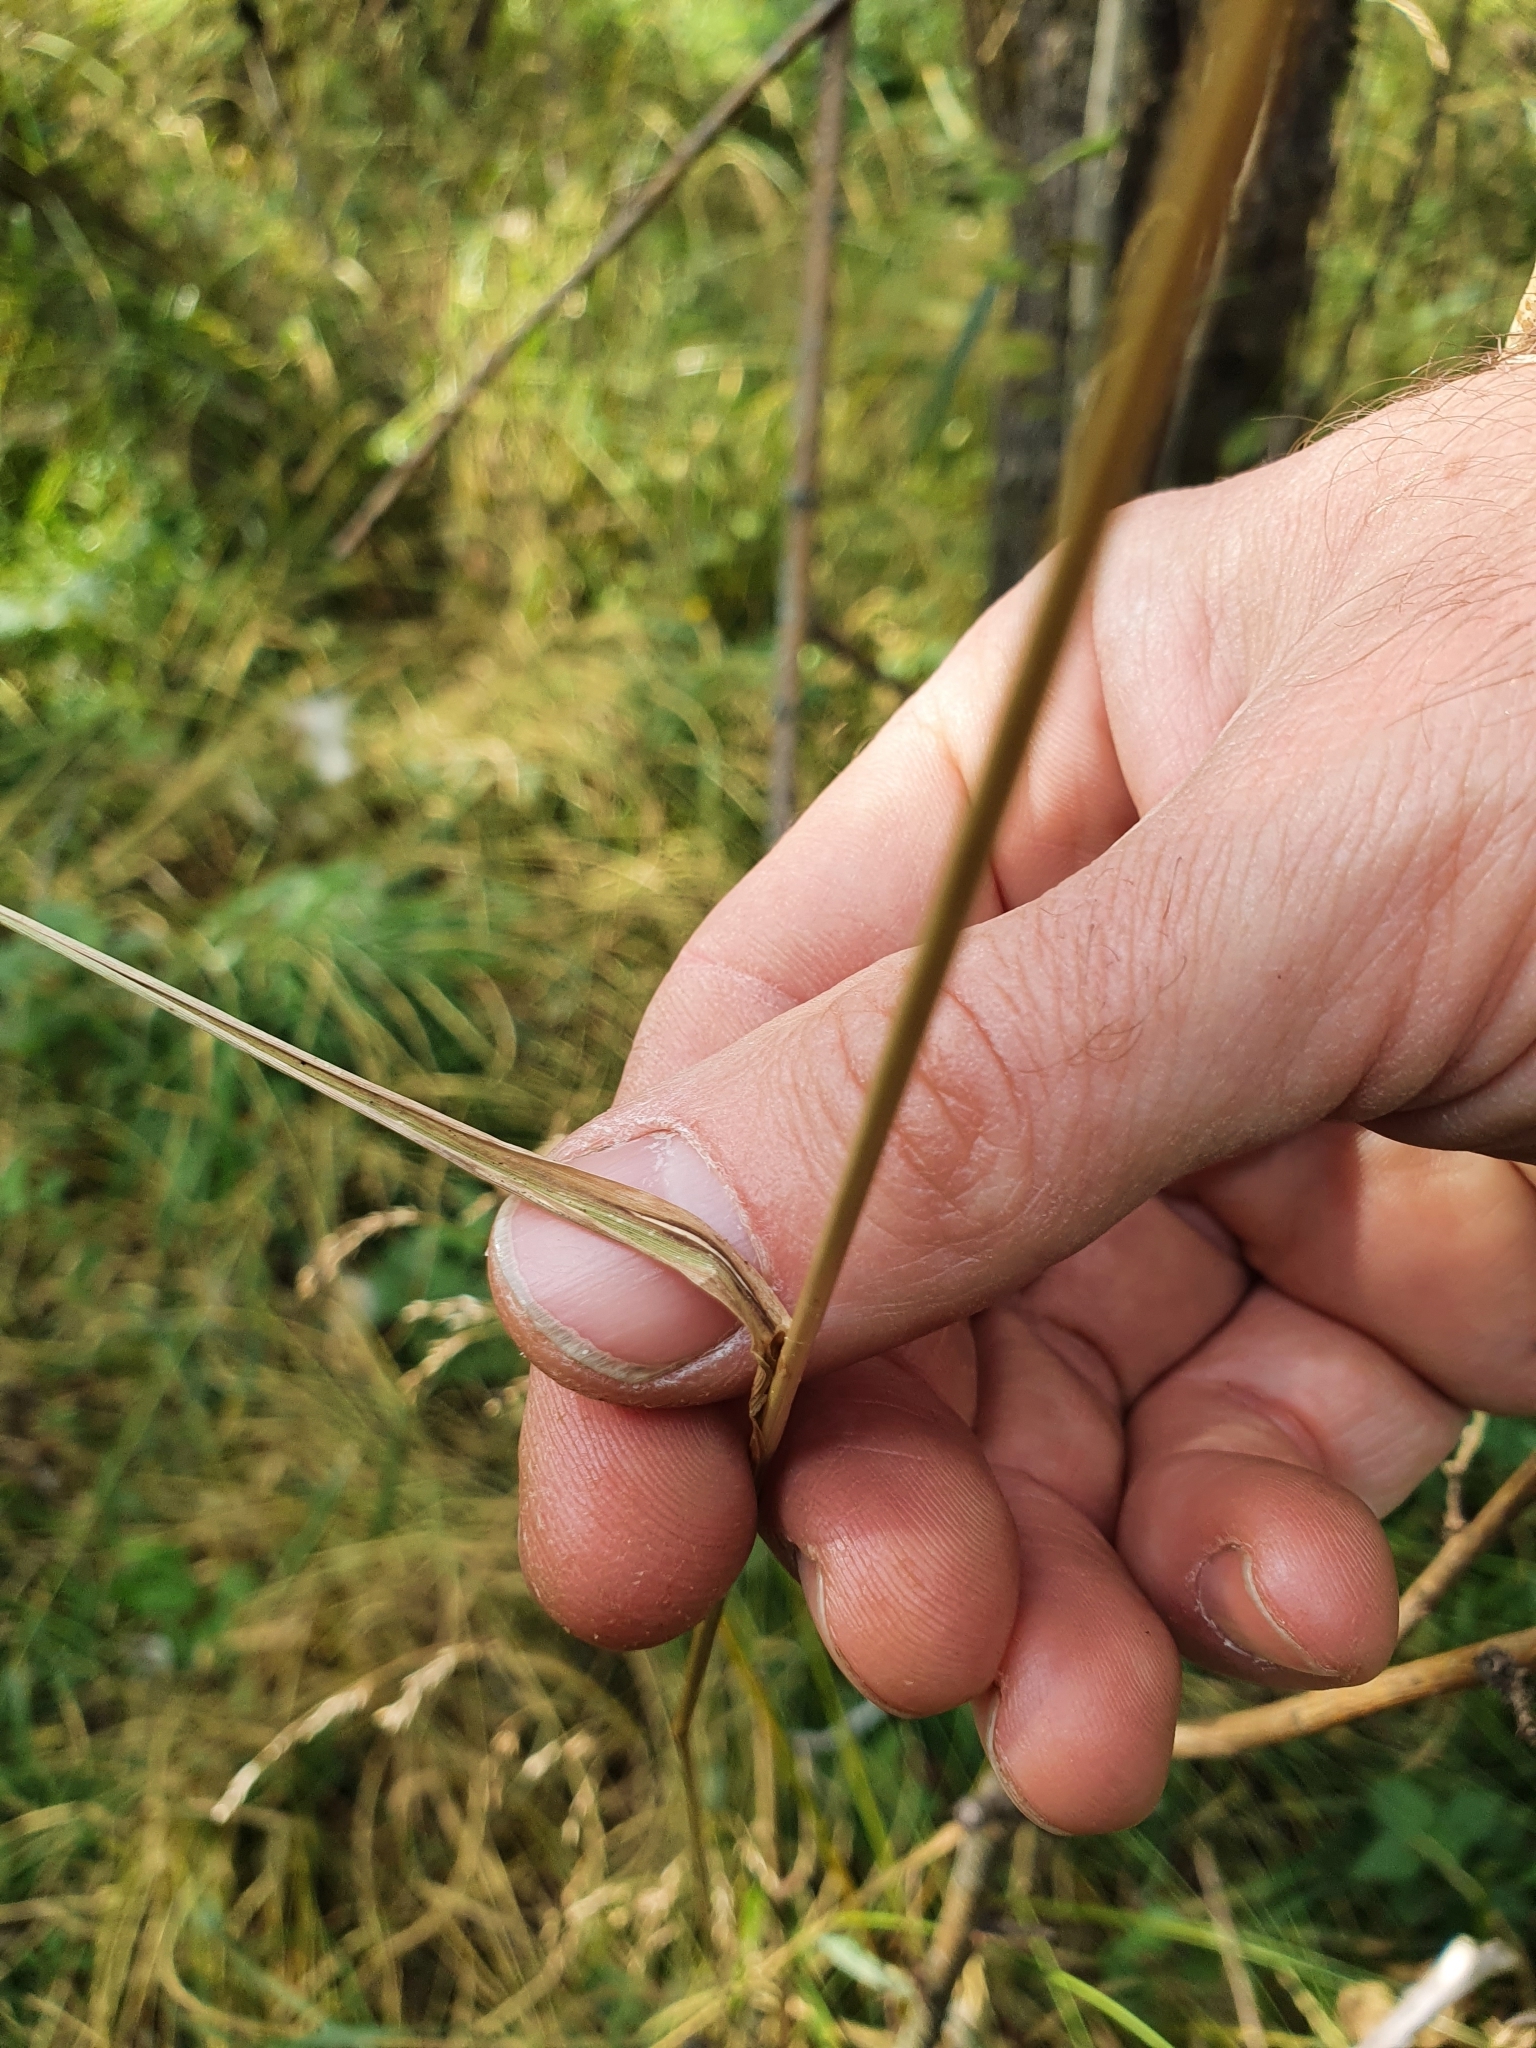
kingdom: Plantae
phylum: Tracheophyta
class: Liliopsida
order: Poales
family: Poaceae
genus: Glyceria
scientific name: Glyceria lithuanica
